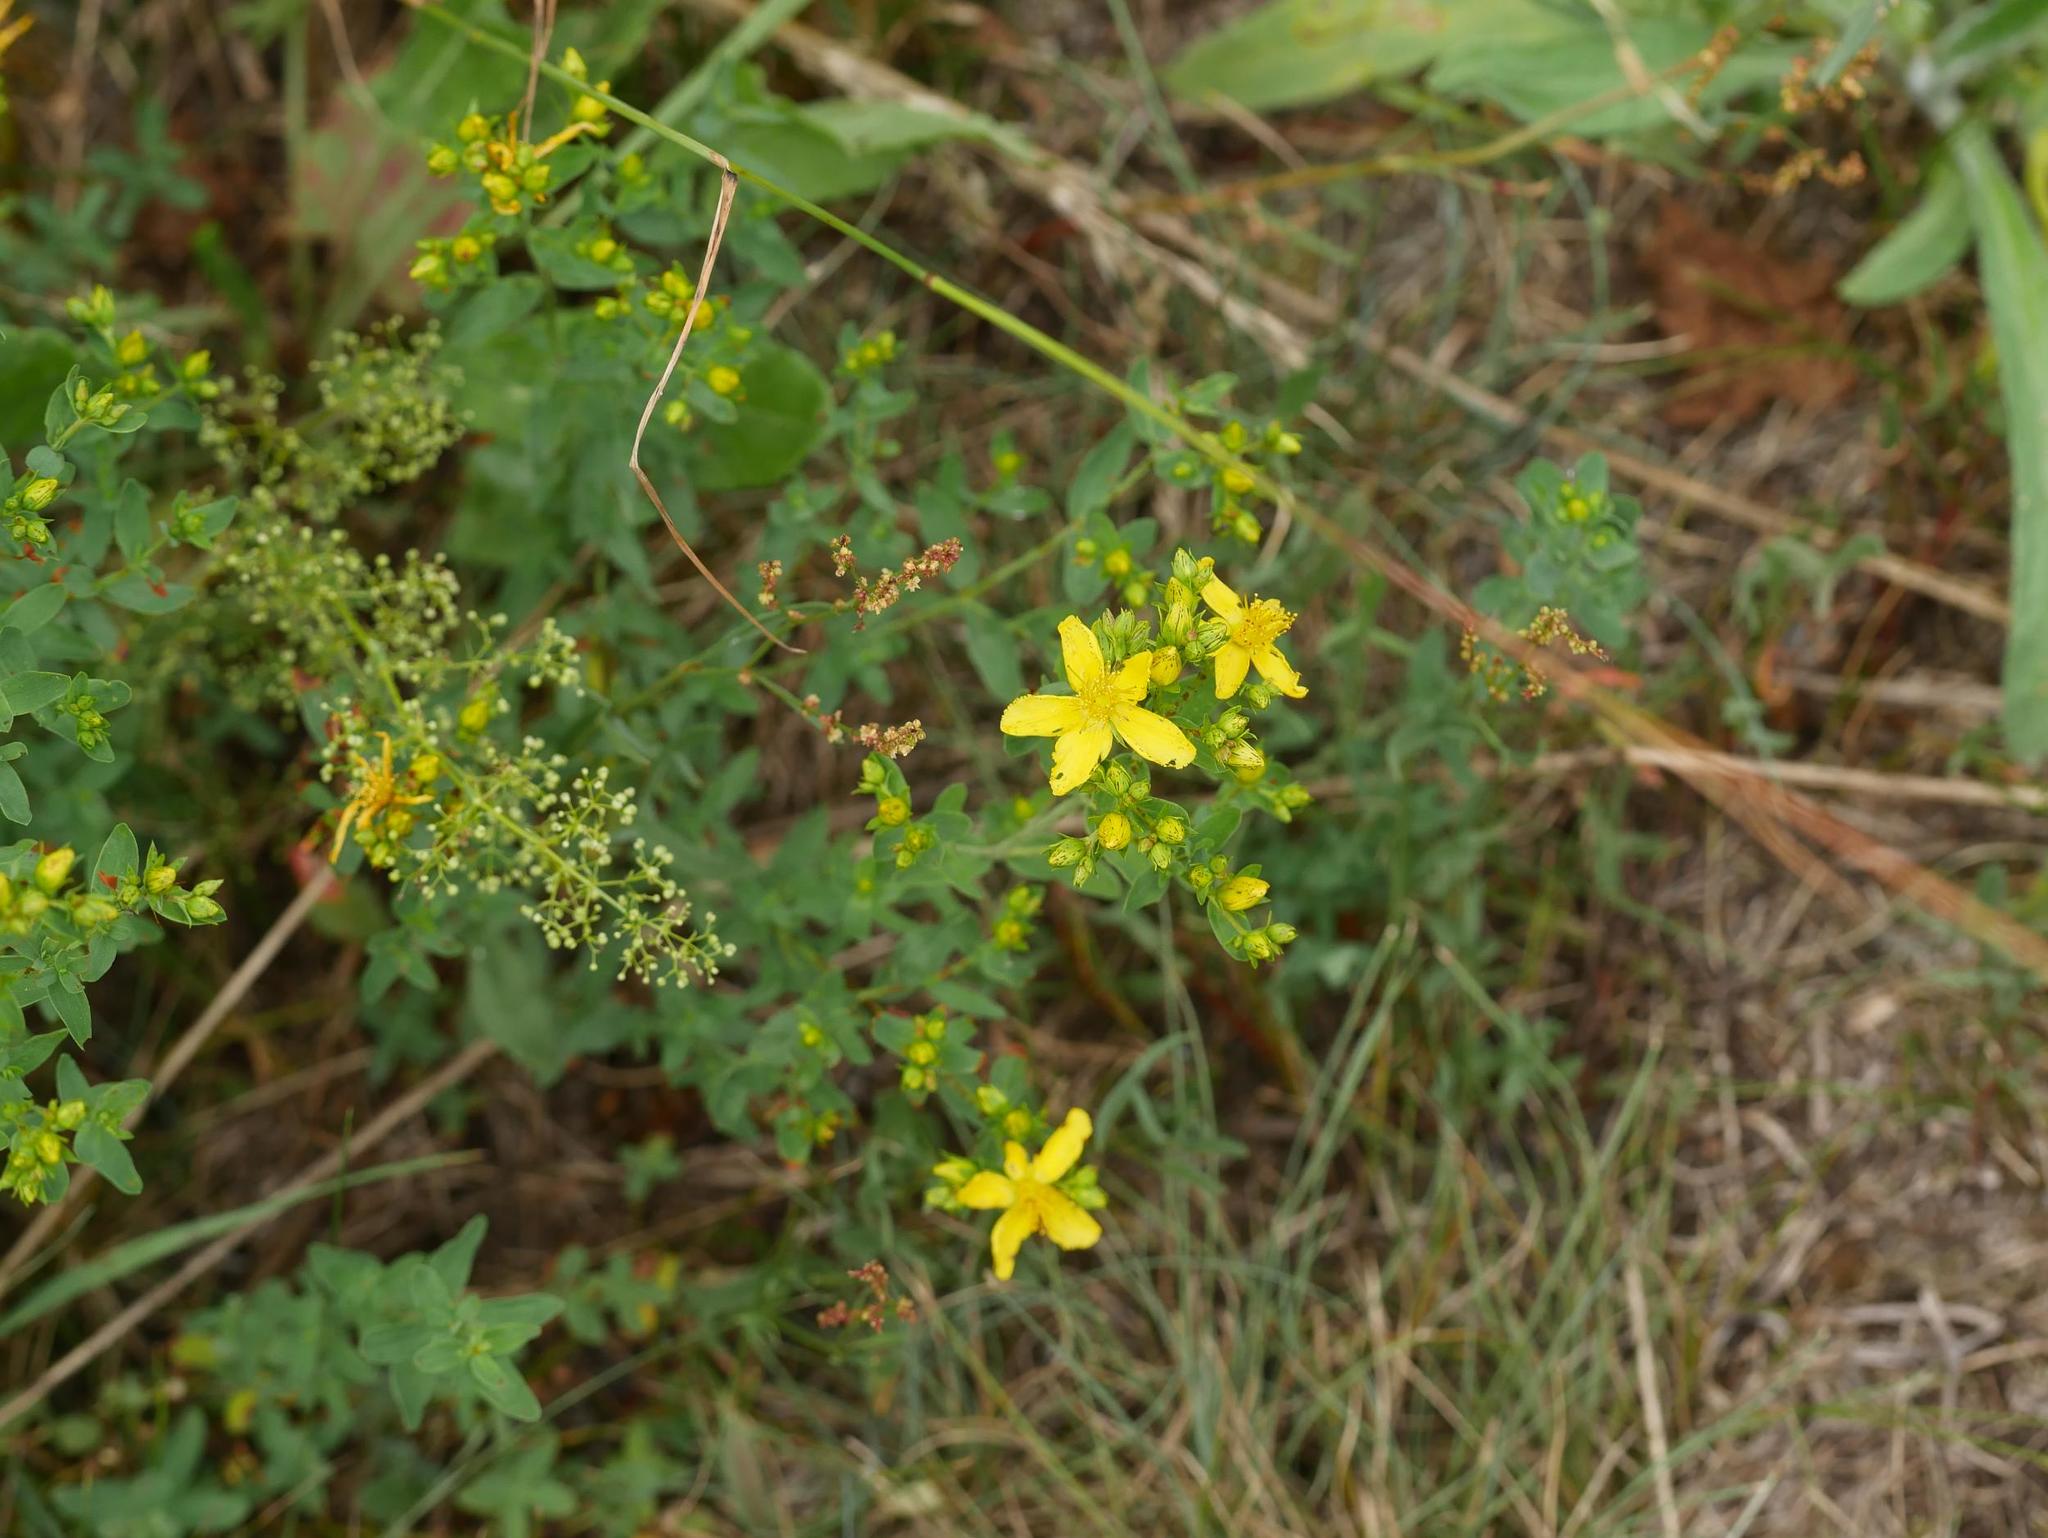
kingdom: Plantae
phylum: Tracheophyta
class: Magnoliopsida
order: Malpighiales
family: Hypericaceae
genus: Hypericum
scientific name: Hypericum perforatum
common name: Common st. johnswort
